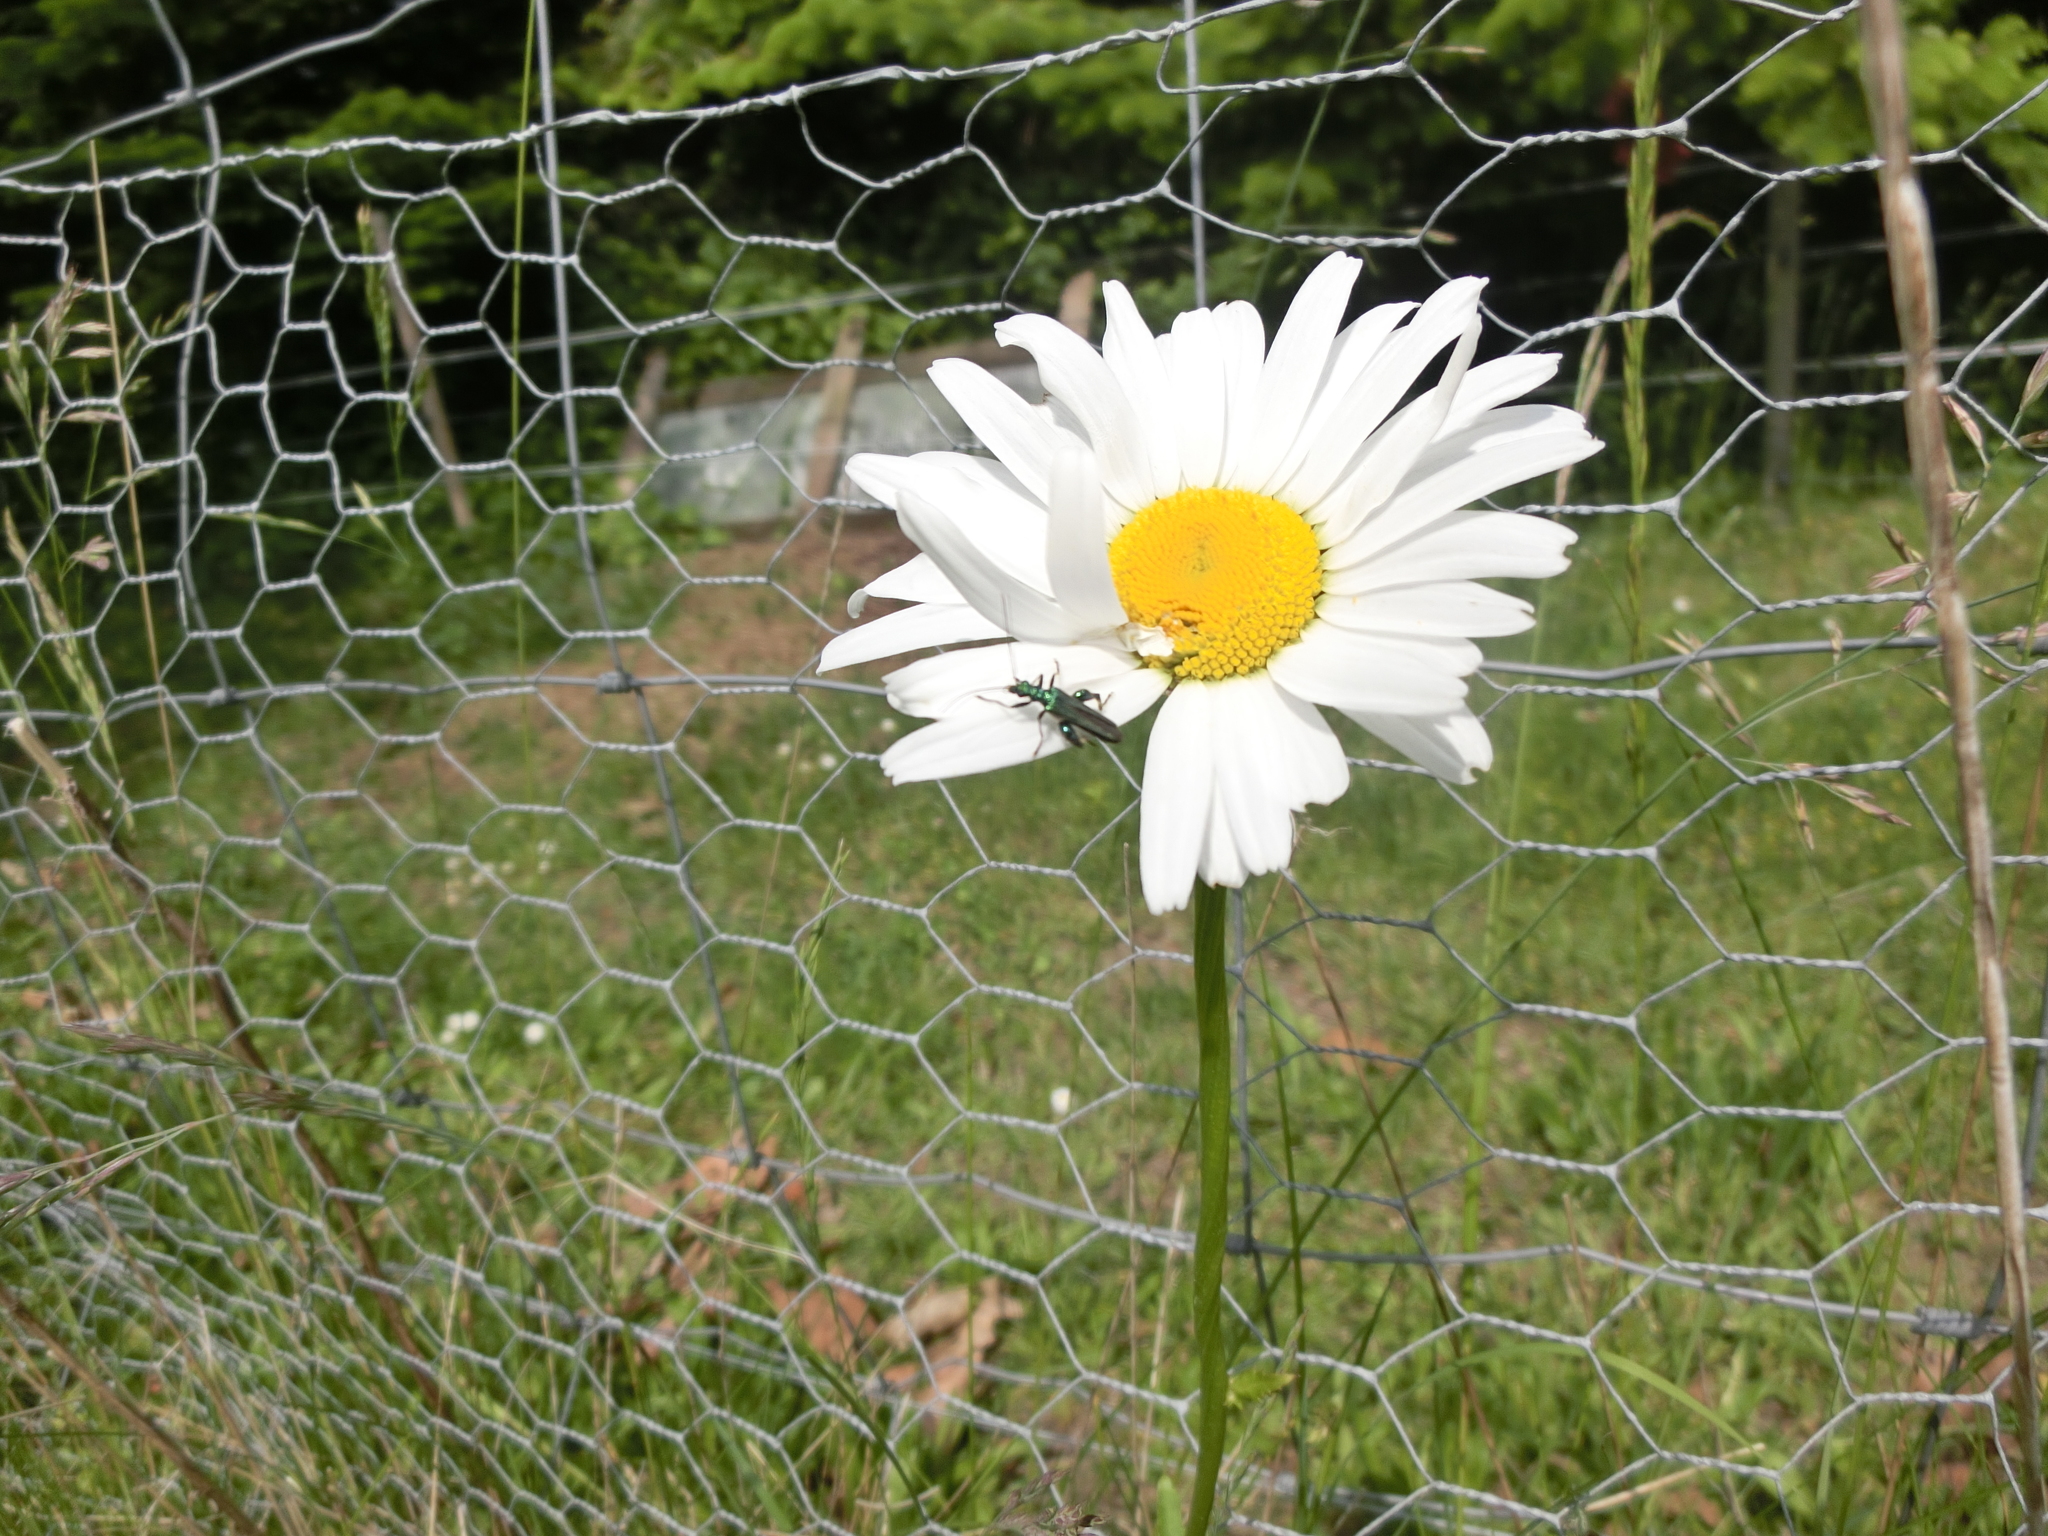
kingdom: Animalia
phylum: Arthropoda
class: Insecta
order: Coleoptera
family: Oedemeridae
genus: Oedemera
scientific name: Oedemera nobilis
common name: Swollen-thighed beetle
